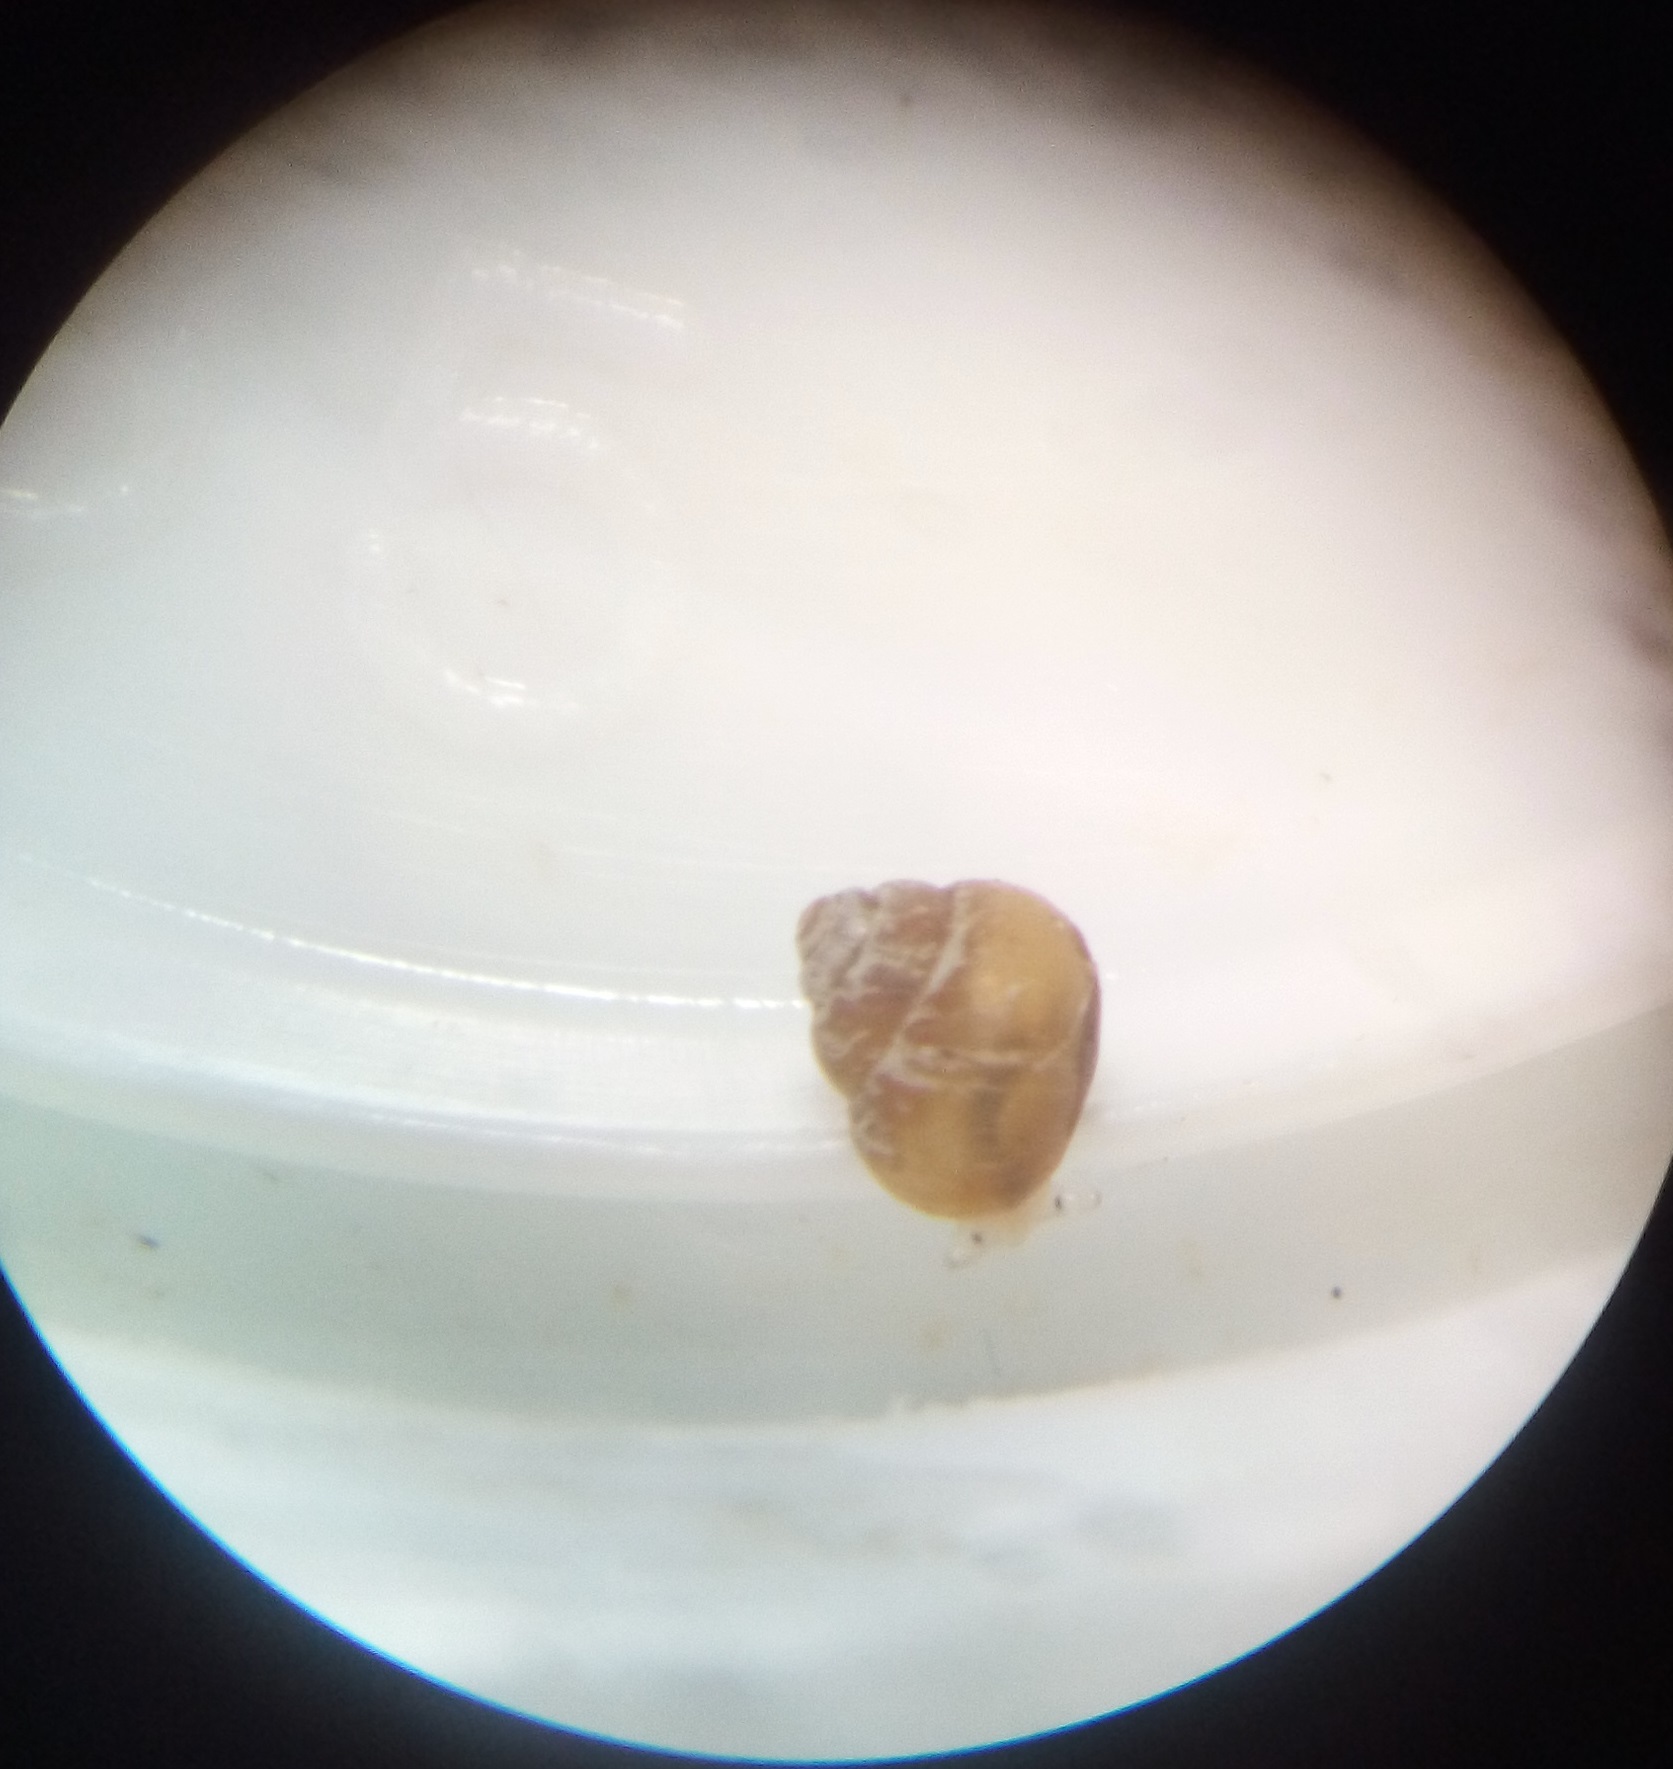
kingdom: Animalia
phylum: Mollusca
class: Gastropoda
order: Littorinimorpha
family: Assimineidae
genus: Suterilla
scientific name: Suterilla neozelanica
